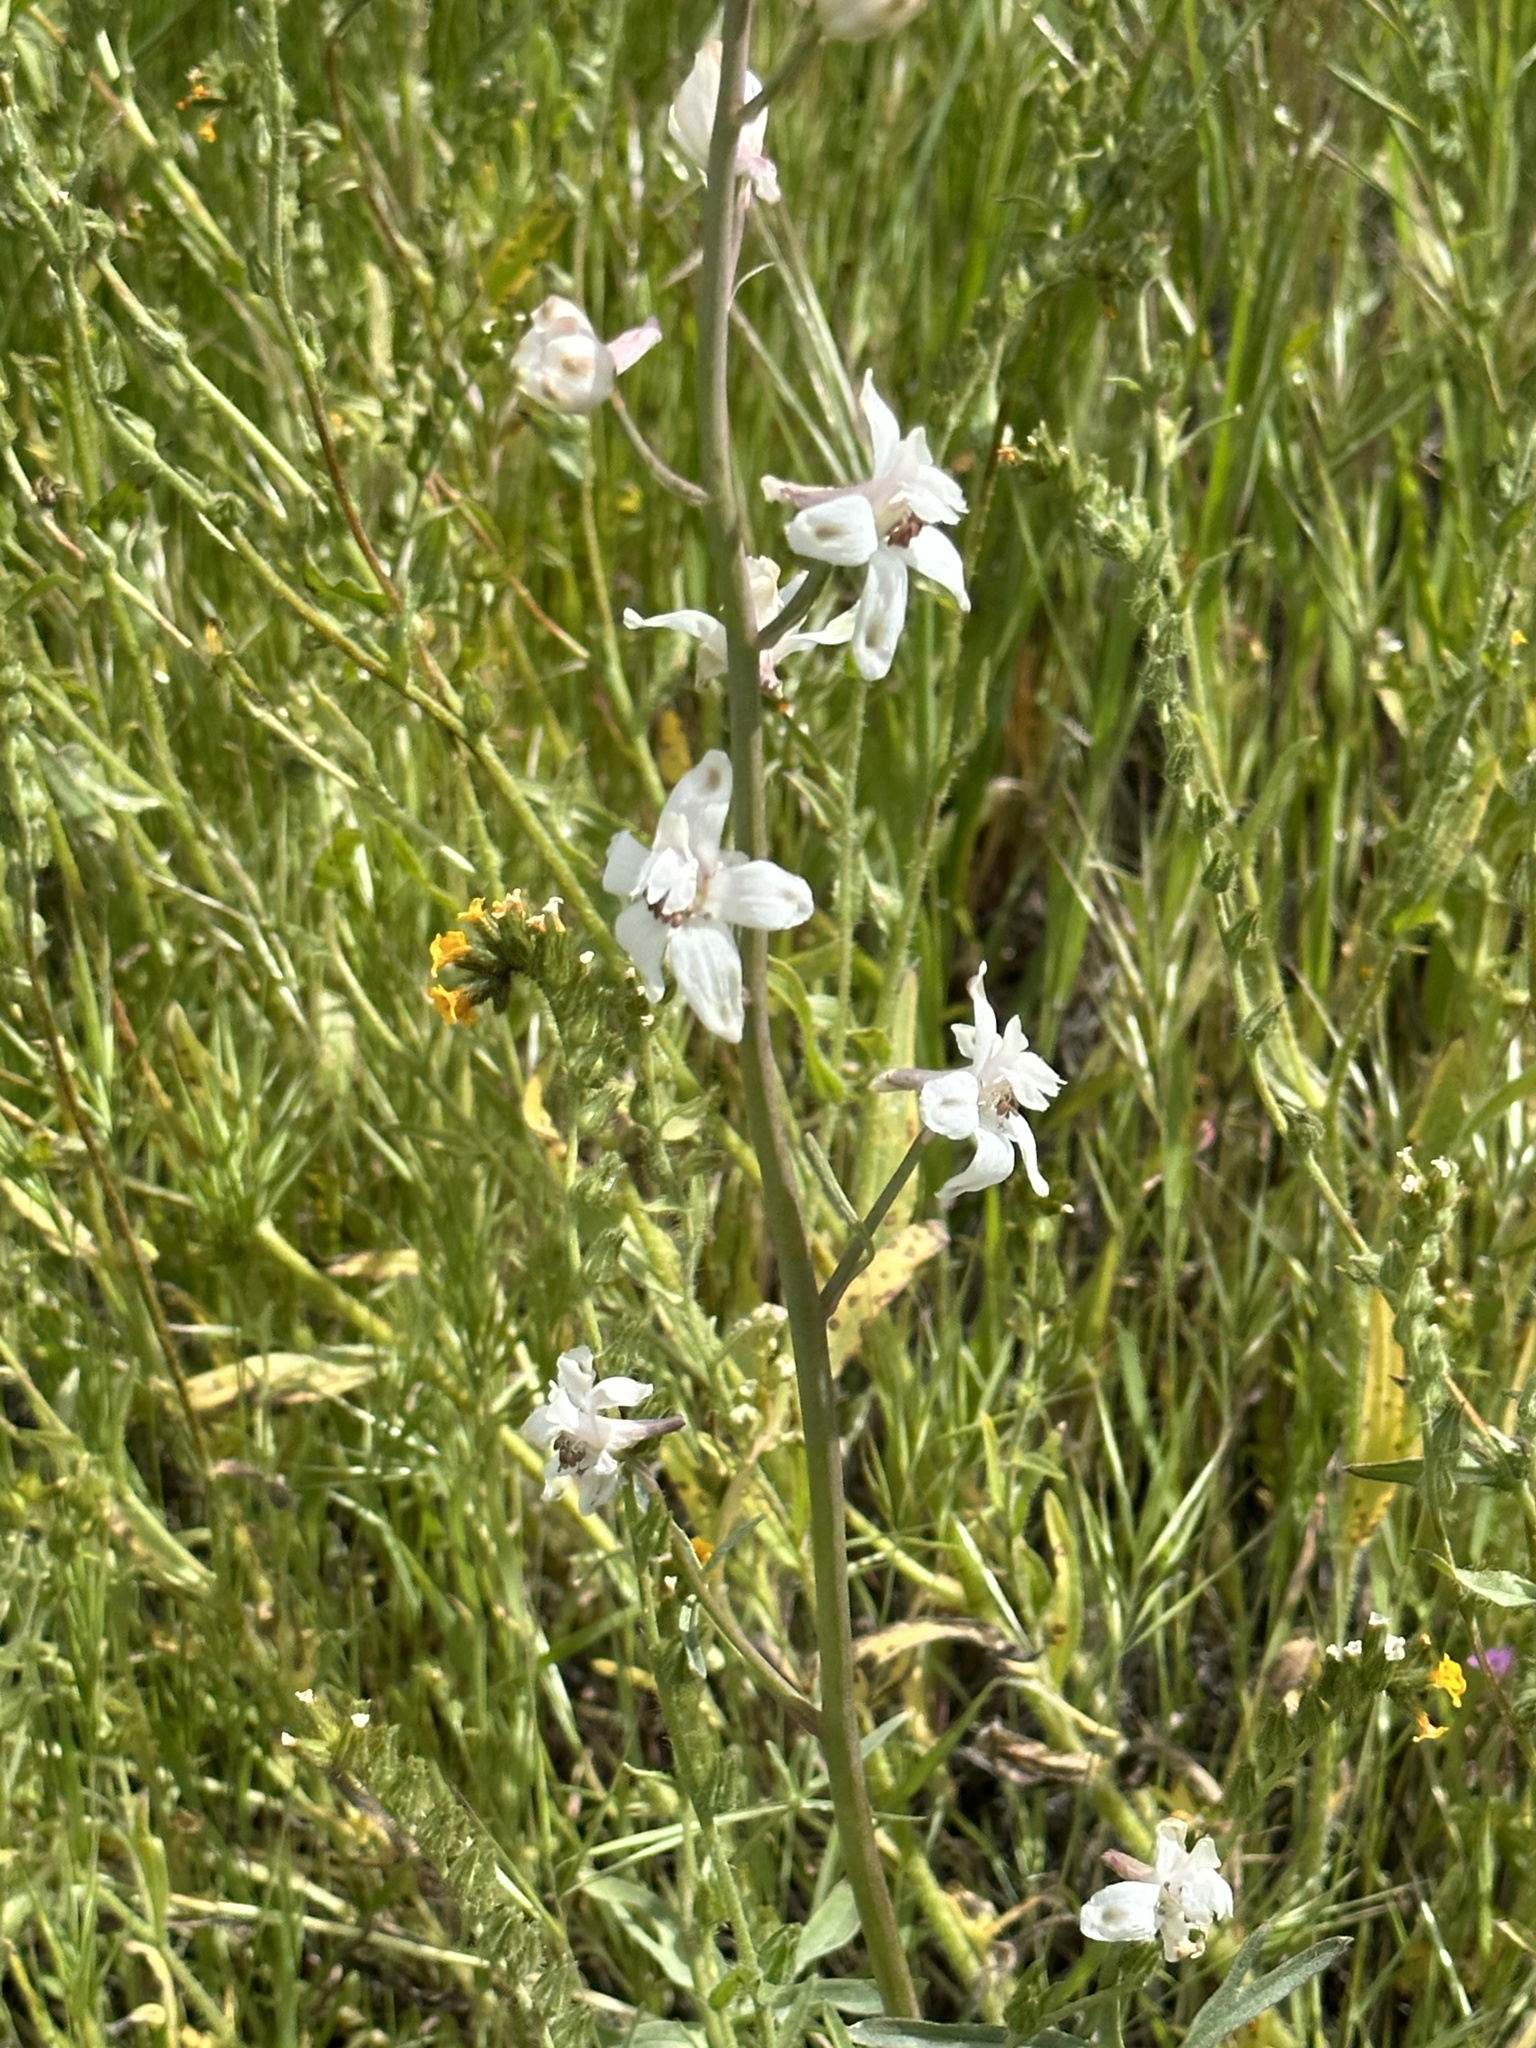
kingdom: Plantae
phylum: Tracheophyta
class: Magnoliopsida
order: Ranunculales
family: Ranunculaceae
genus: Delphinium
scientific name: Delphinium gypsophilum
